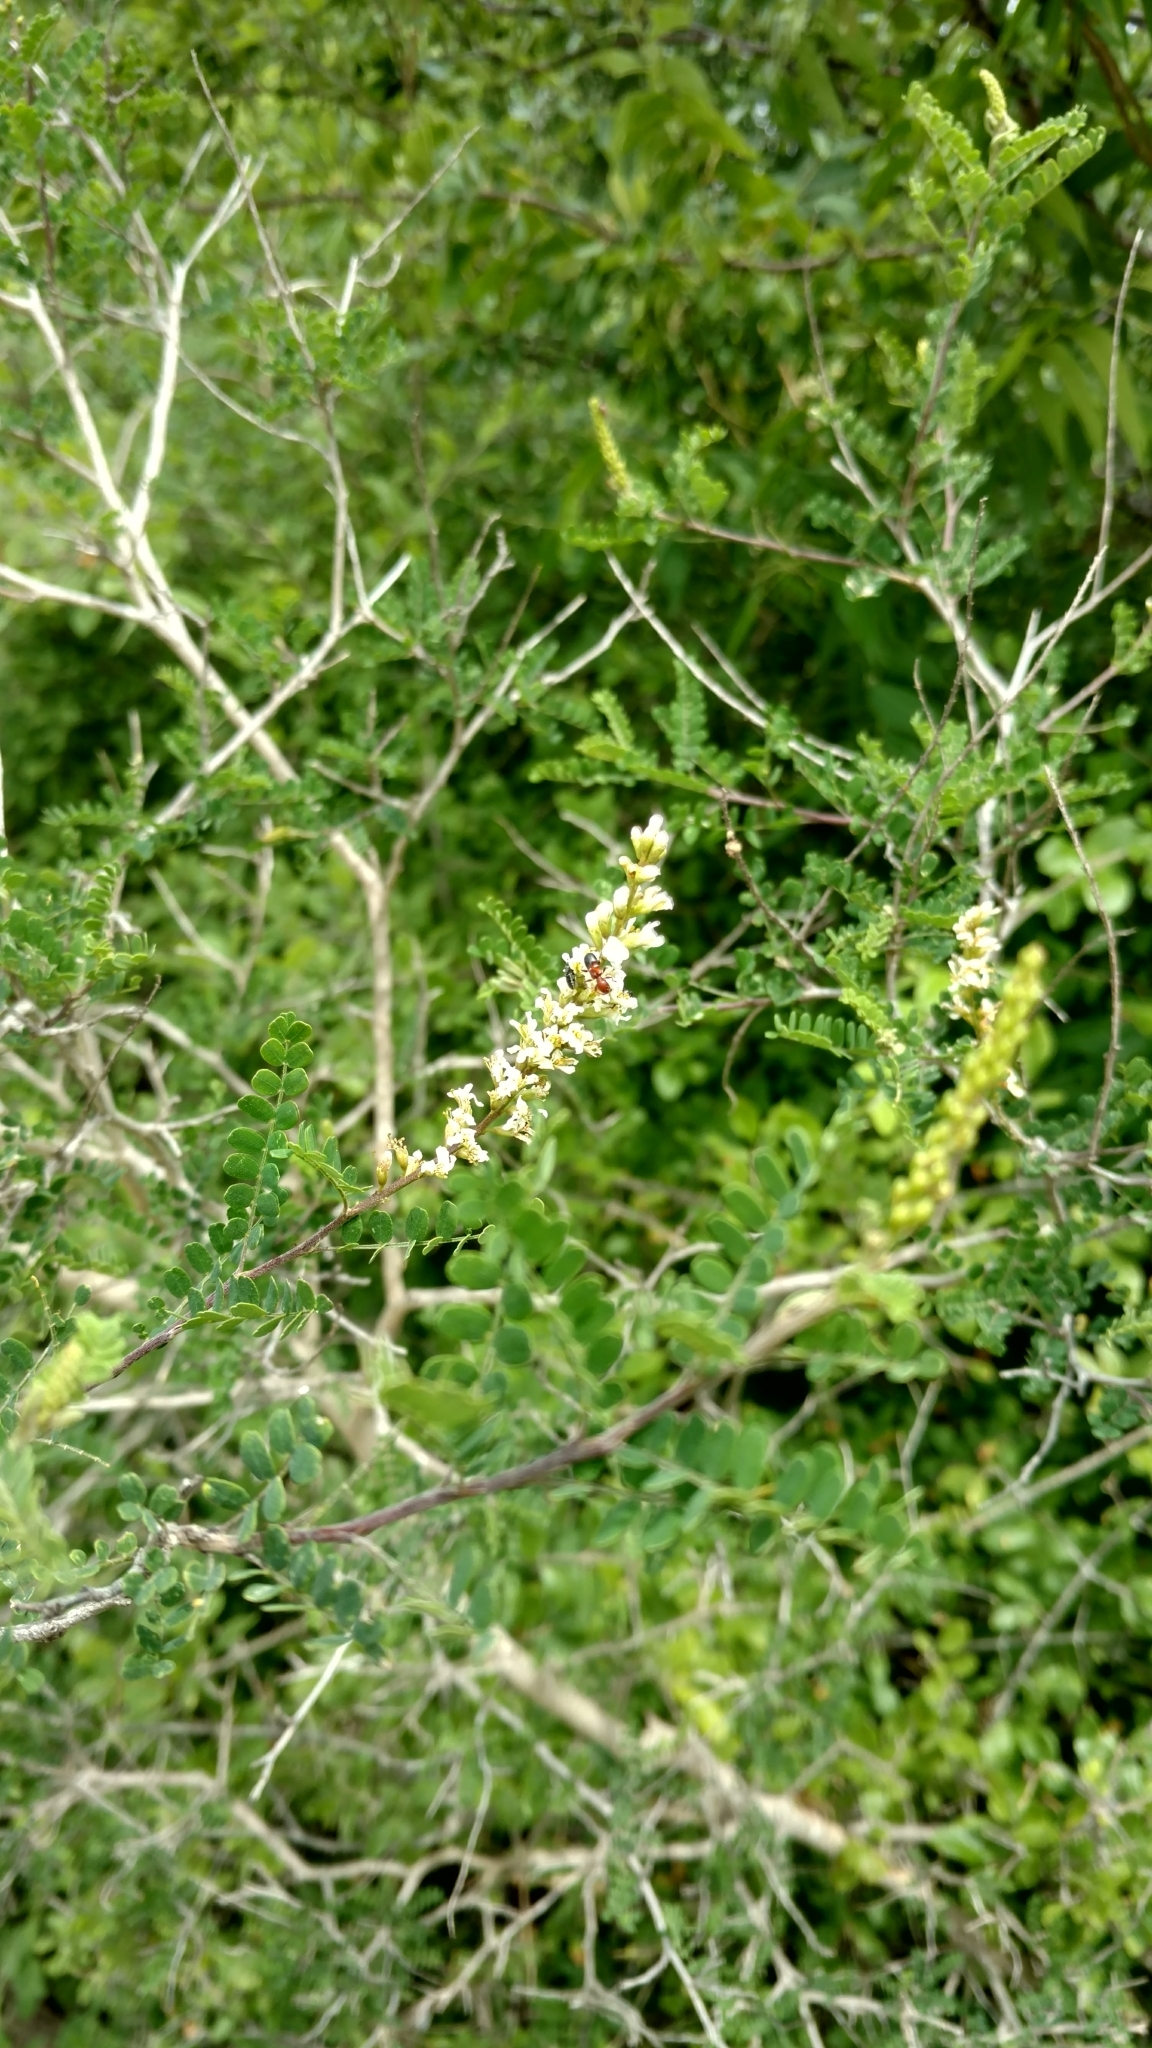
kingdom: Plantae
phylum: Tracheophyta
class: Magnoliopsida
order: Fabales
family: Fabaceae
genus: Eysenhardtia
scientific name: Eysenhardtia texana
